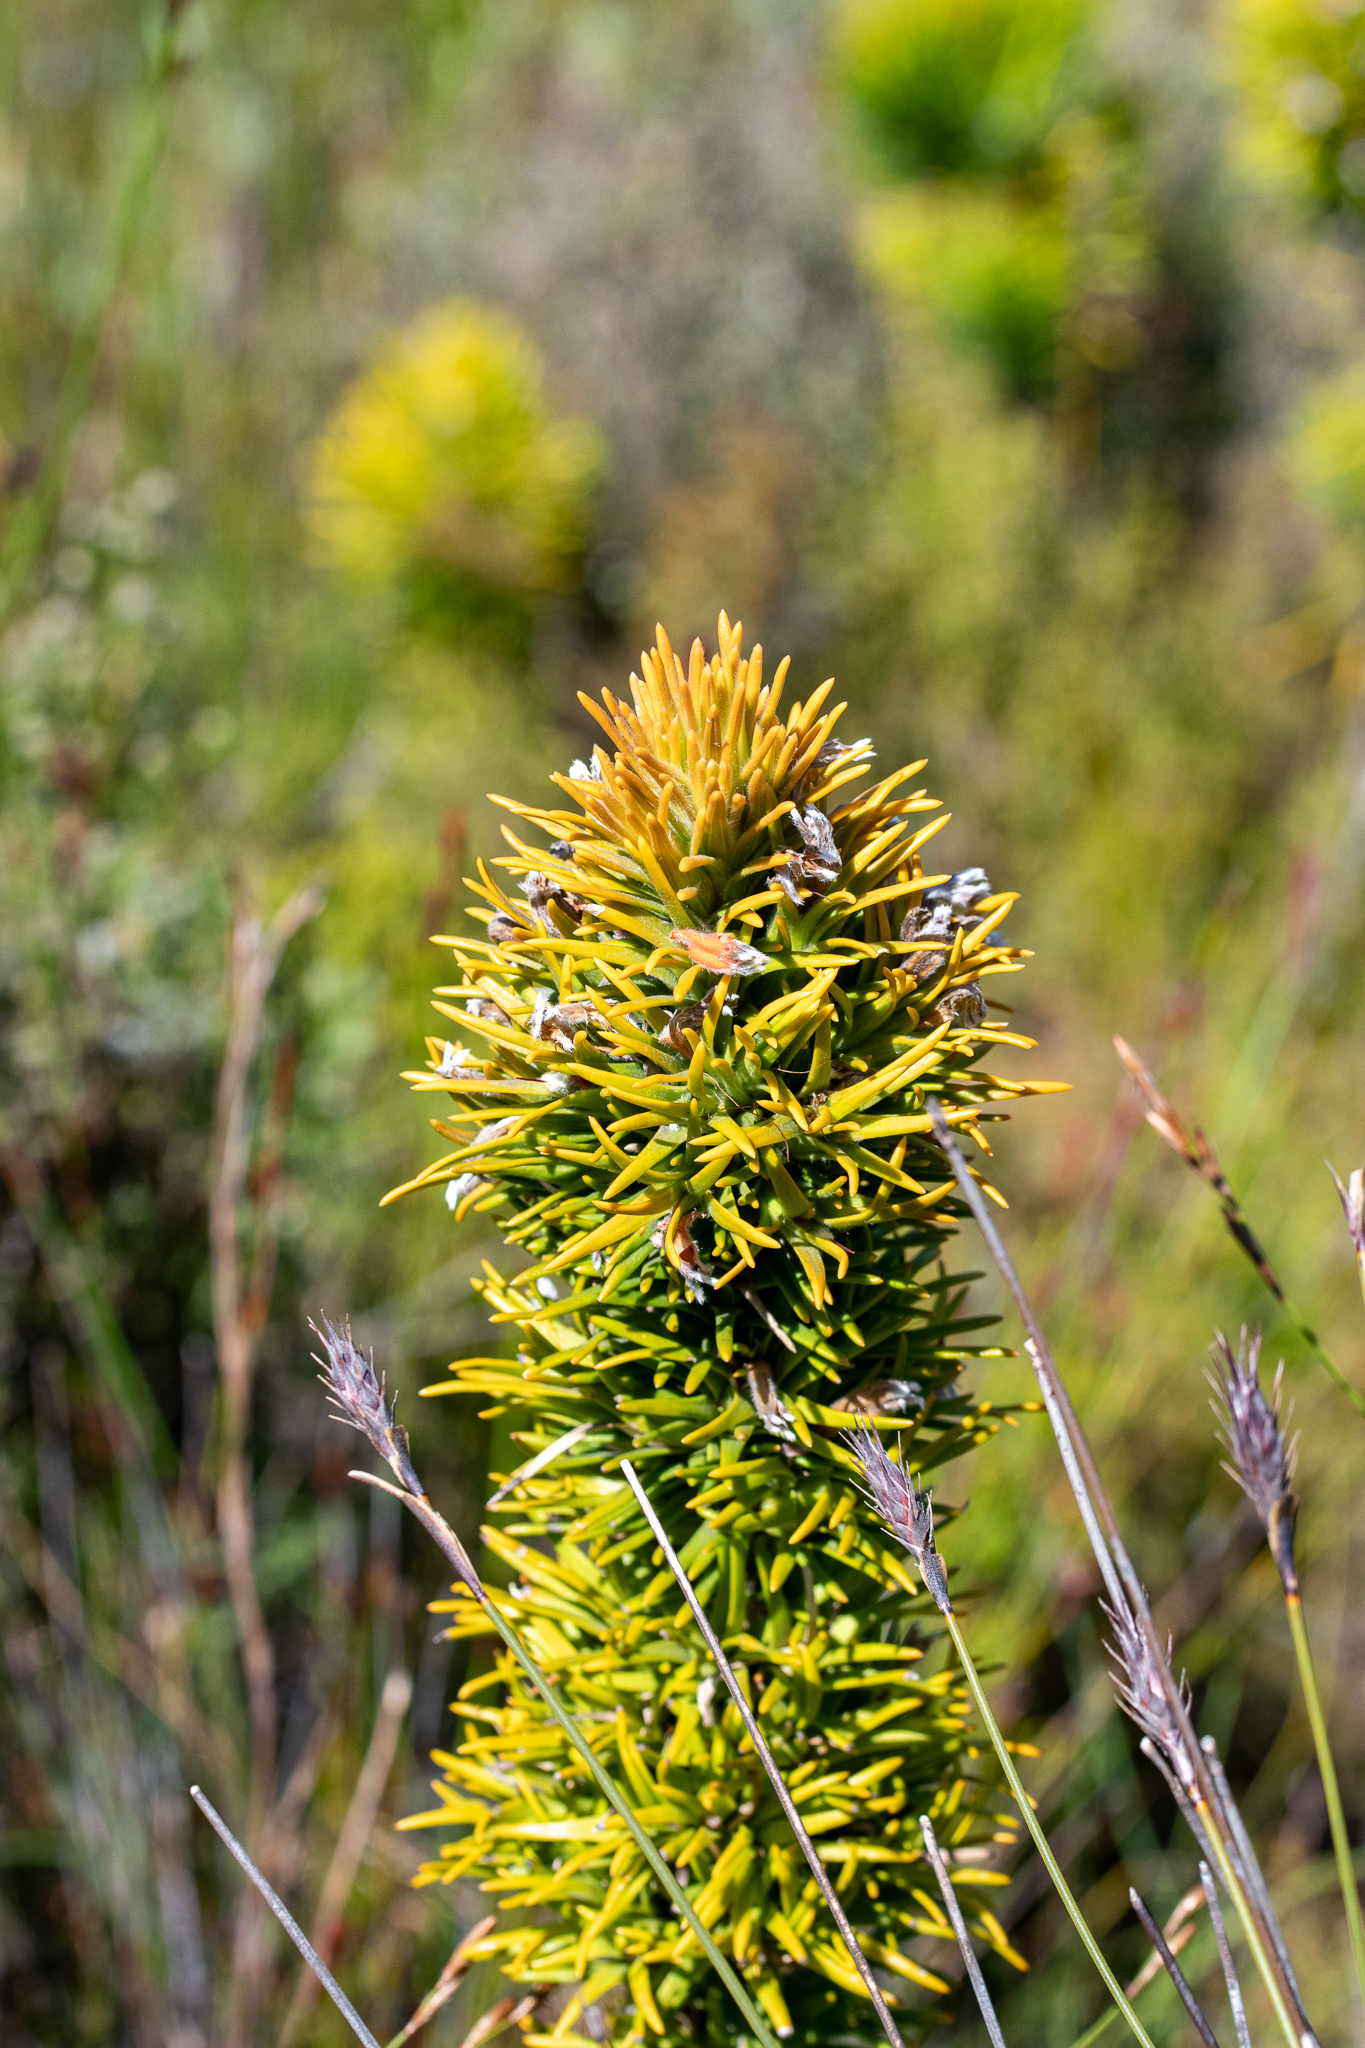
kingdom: Plantae
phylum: Tracheophyta
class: Magnoliopsida
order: Lamiales
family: Stilbaceae
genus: Retzia
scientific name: Retzia capensis
